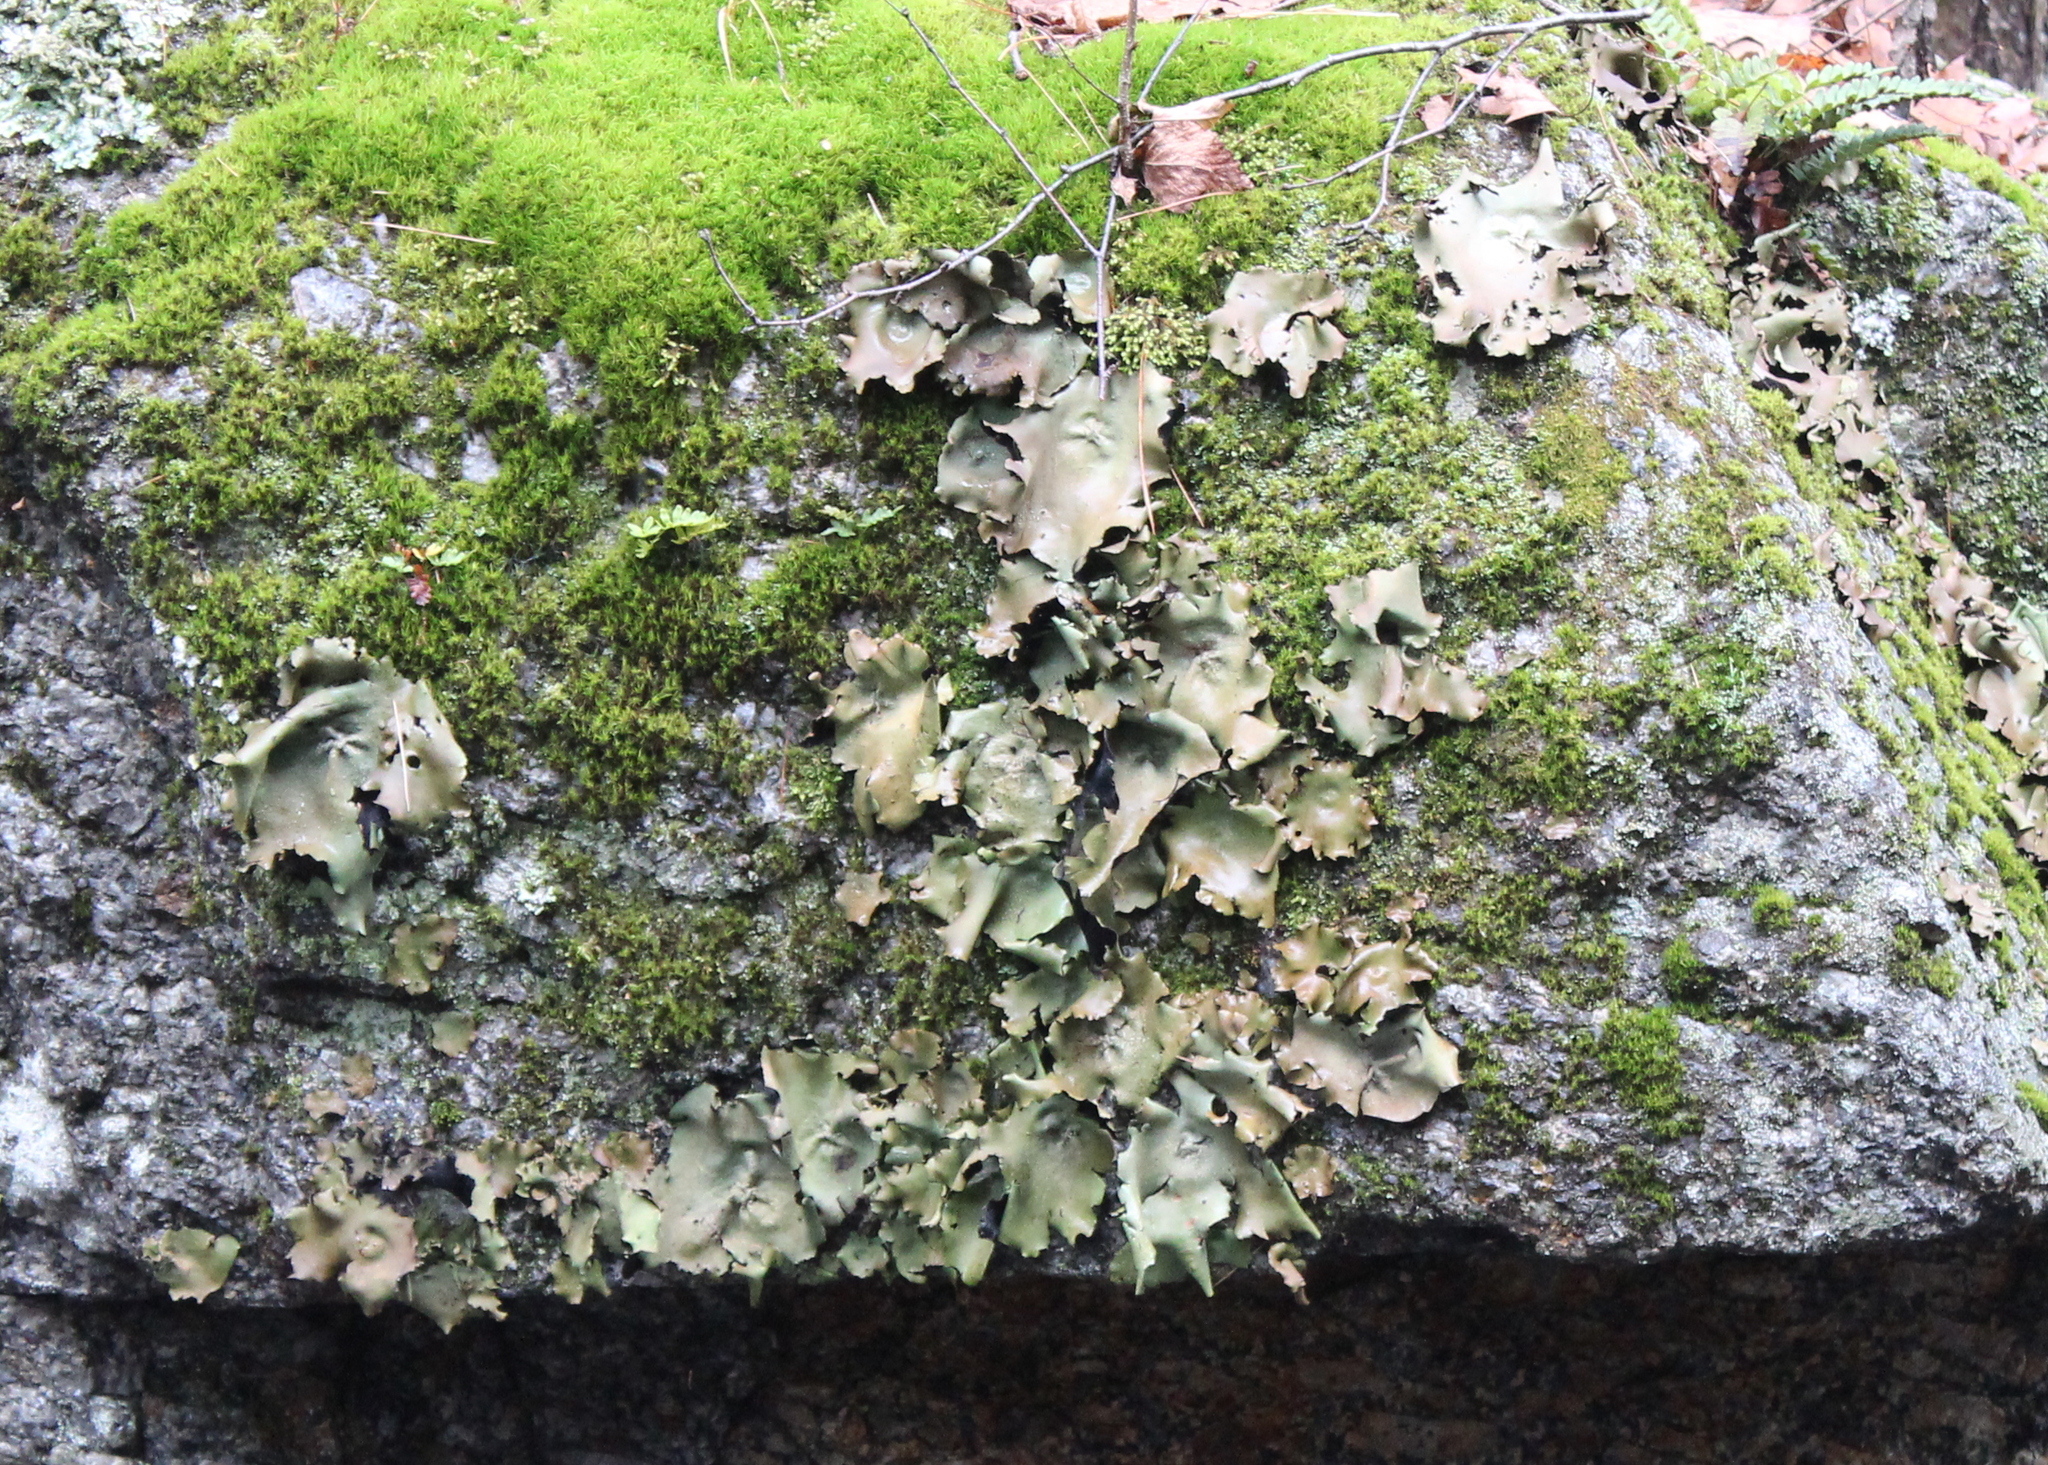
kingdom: Fungi
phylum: Ascomycota
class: Lecanoromycetes
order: Umbilicariales
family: Umbilicariaceae
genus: Umbilicaria
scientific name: Umbilicaria mammulata
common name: Smooth rock tripe
